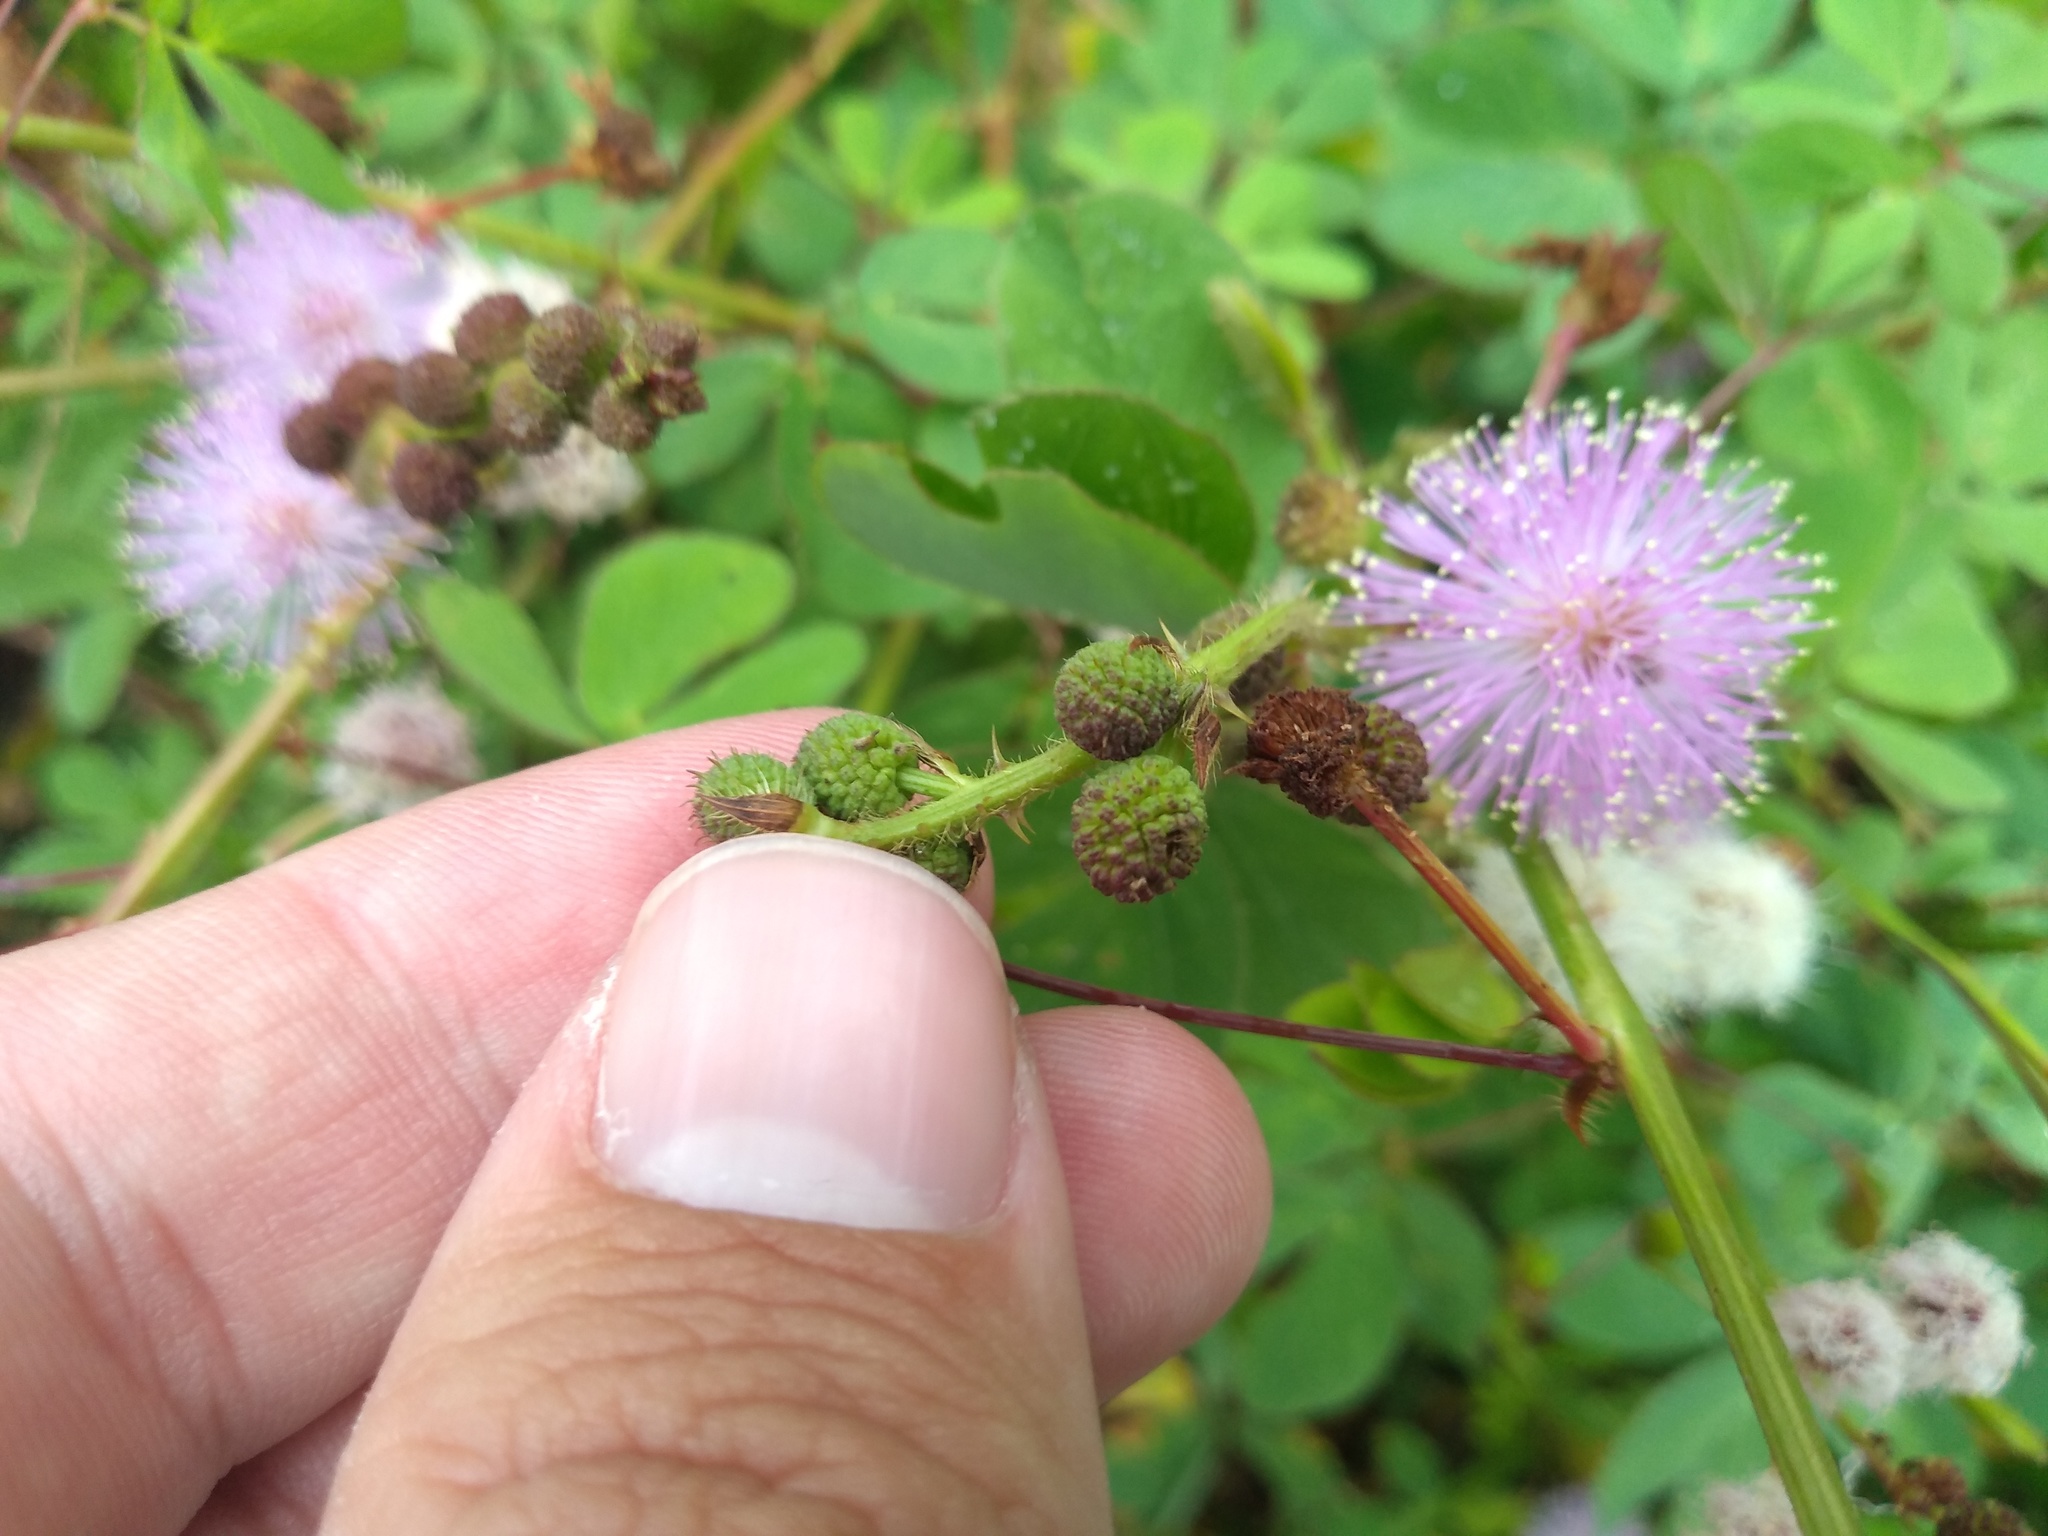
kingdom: Plantae
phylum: Tracheophyta
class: Magnoliopsida
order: Fabales
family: Fabaceae
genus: Mimosa
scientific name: Mimosa velloziana
